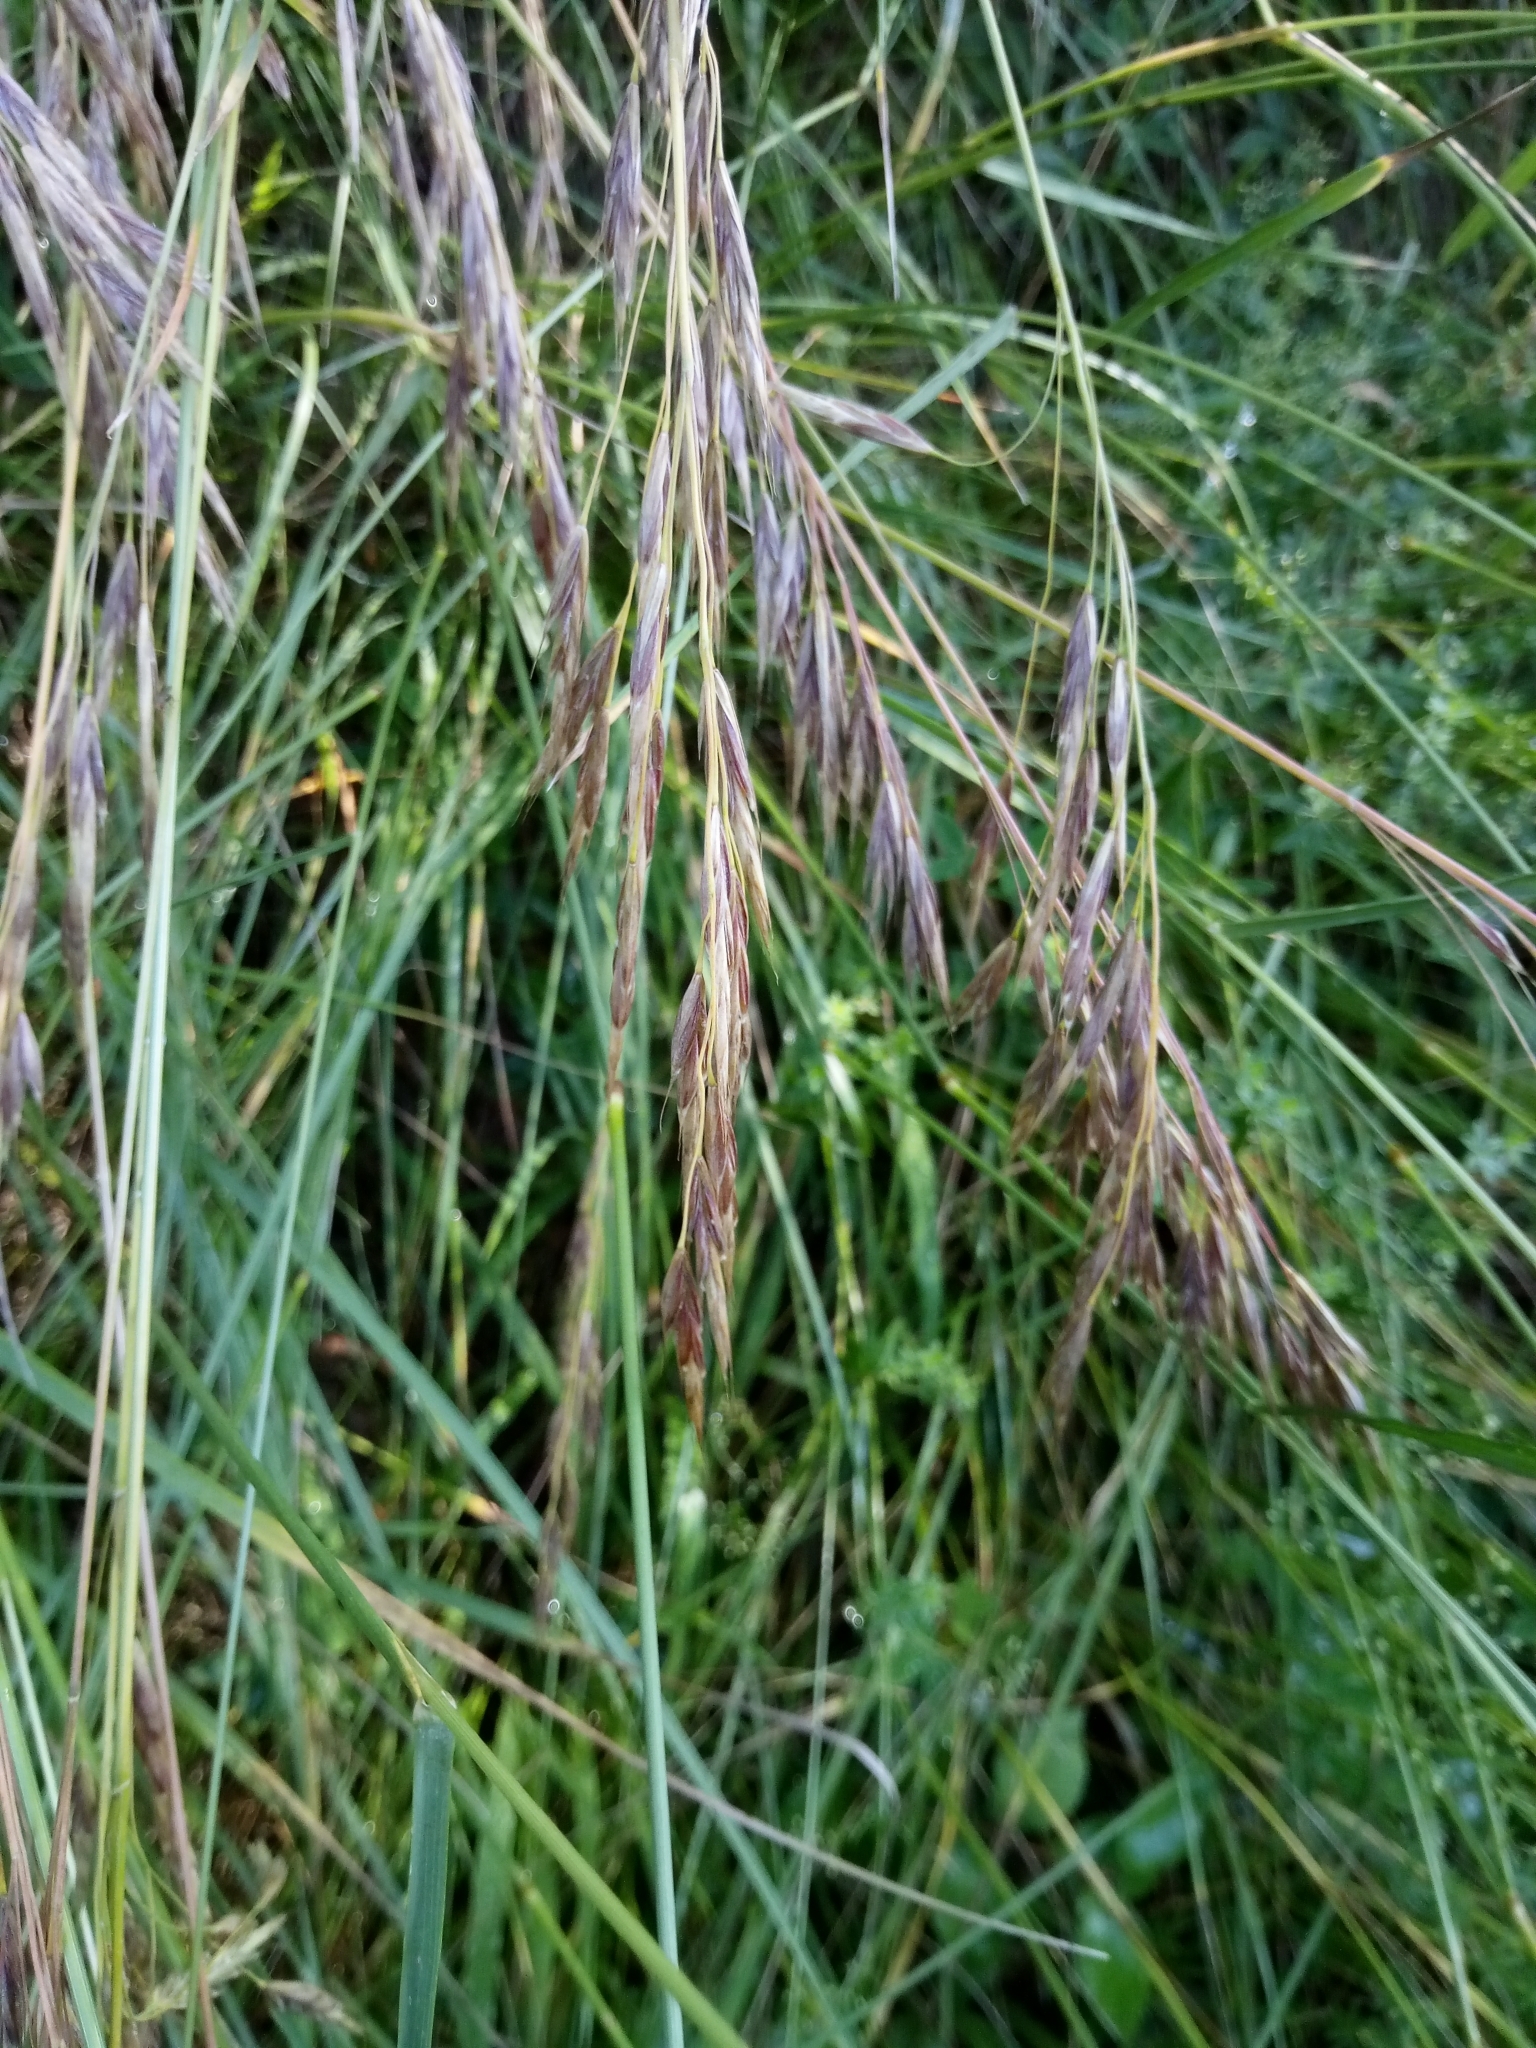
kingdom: Plantae
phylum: Tracheophyta
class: Liliopsida
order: Poales
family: Poaceae
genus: Bromus
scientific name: Bromus erectus
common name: Erect brome
